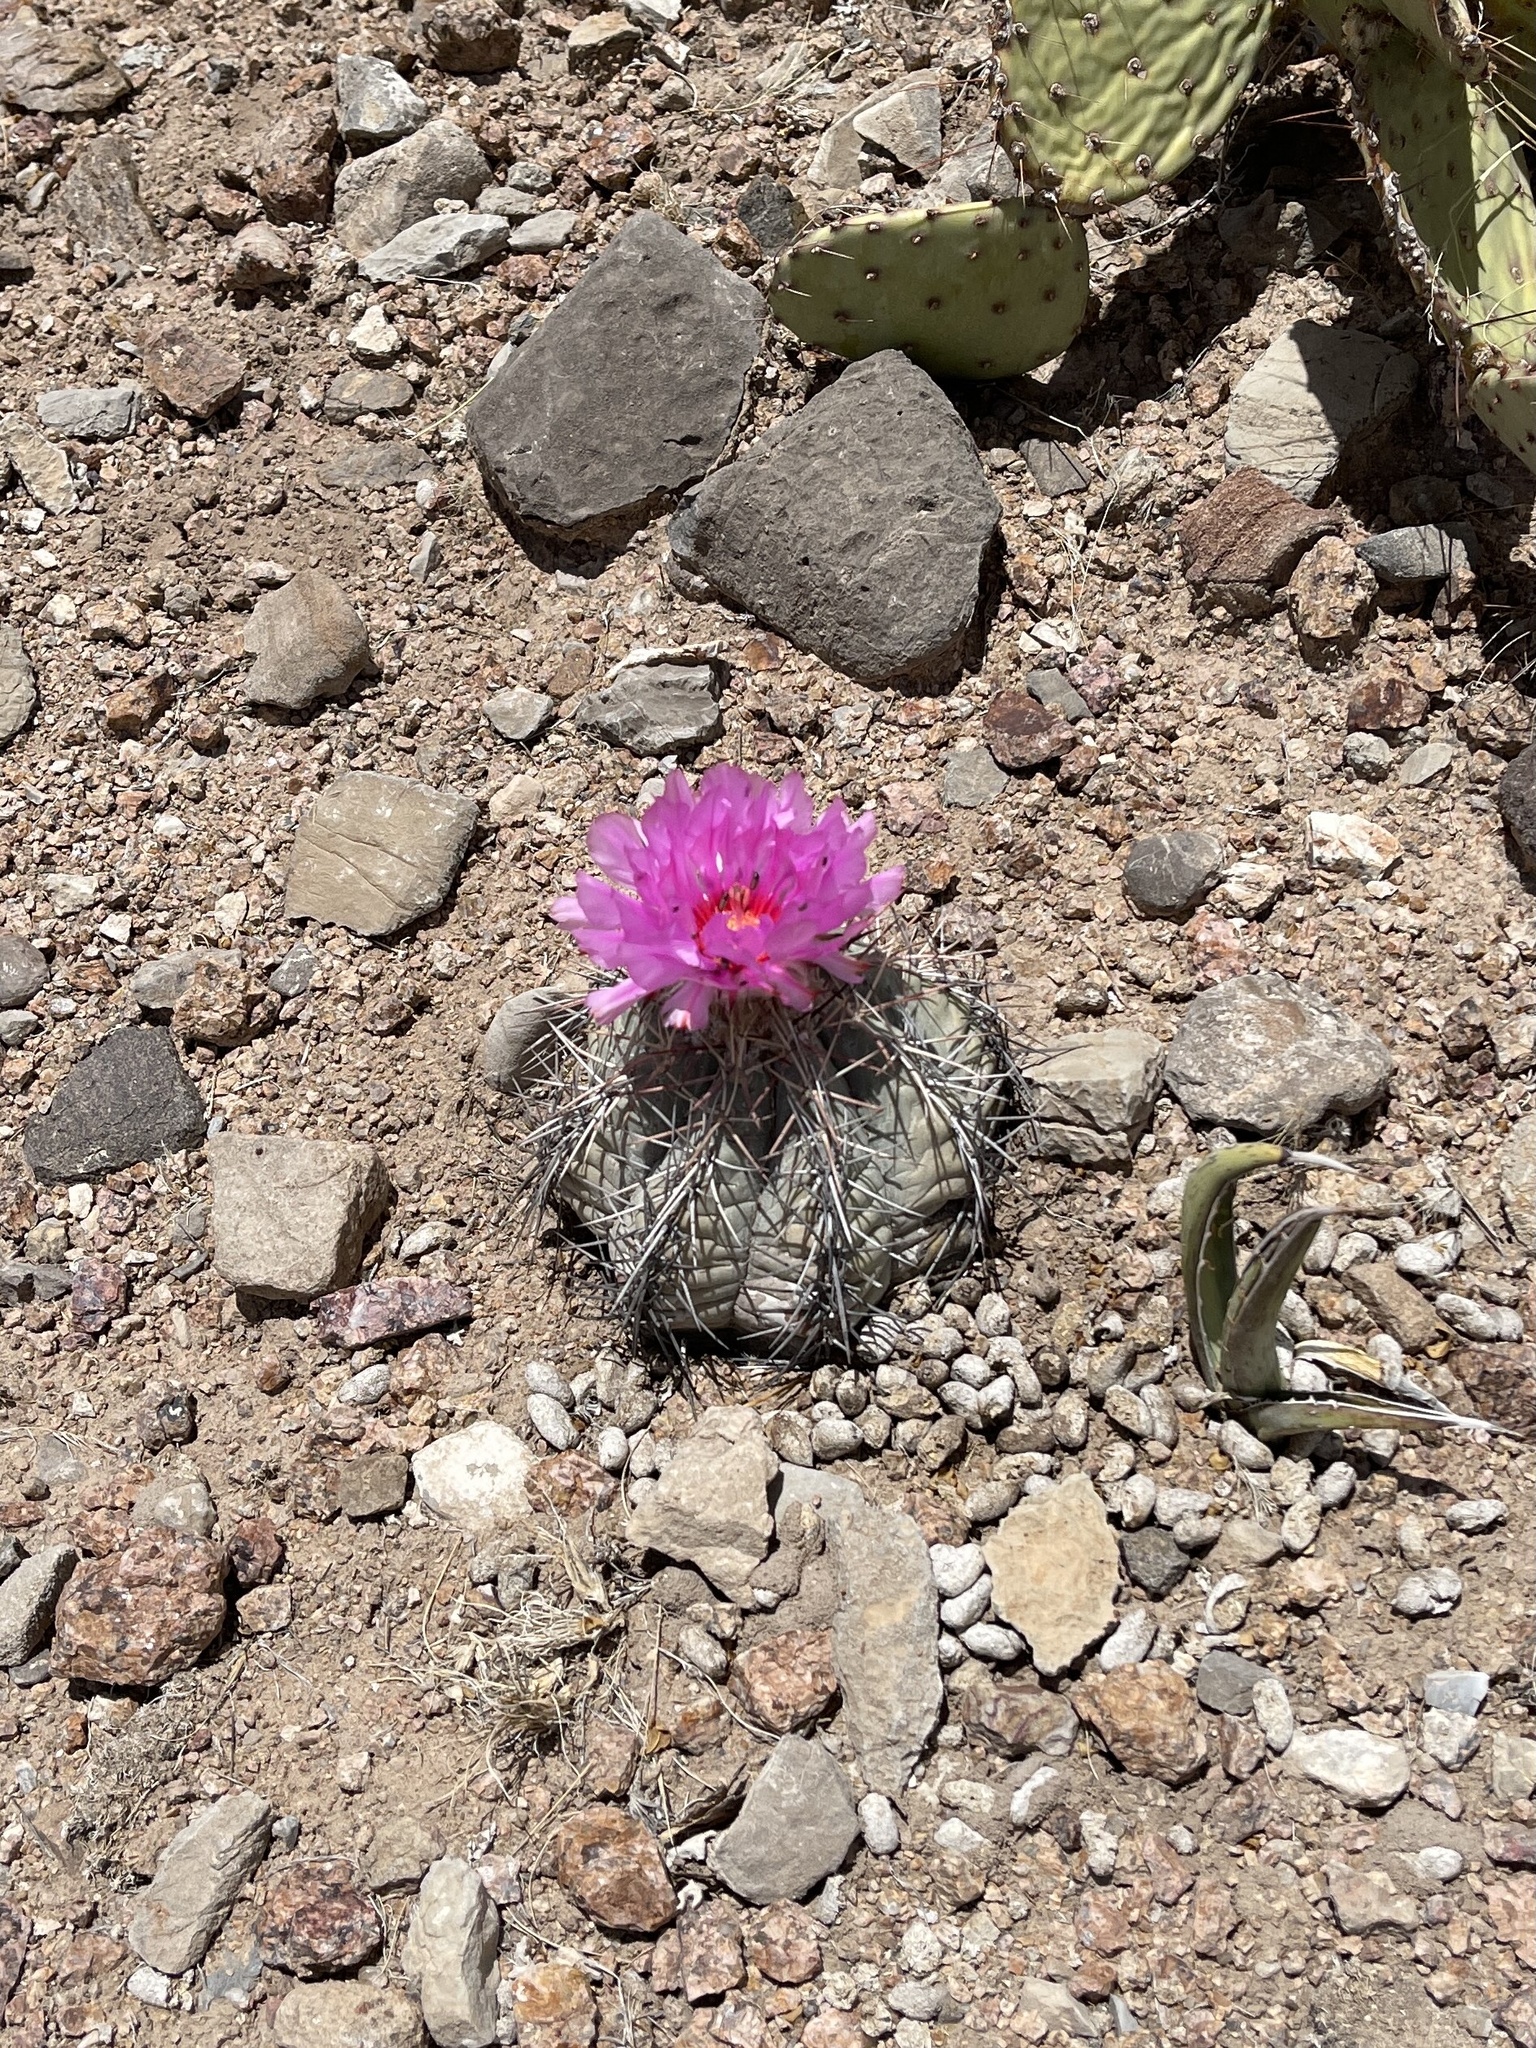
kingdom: Plantae
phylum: Tracheophyta
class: Magnoliopsida
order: Caryophyllales
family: Cactaceae
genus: Echinocactus
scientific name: Echinocactus horizonthalonius
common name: Devilshead
